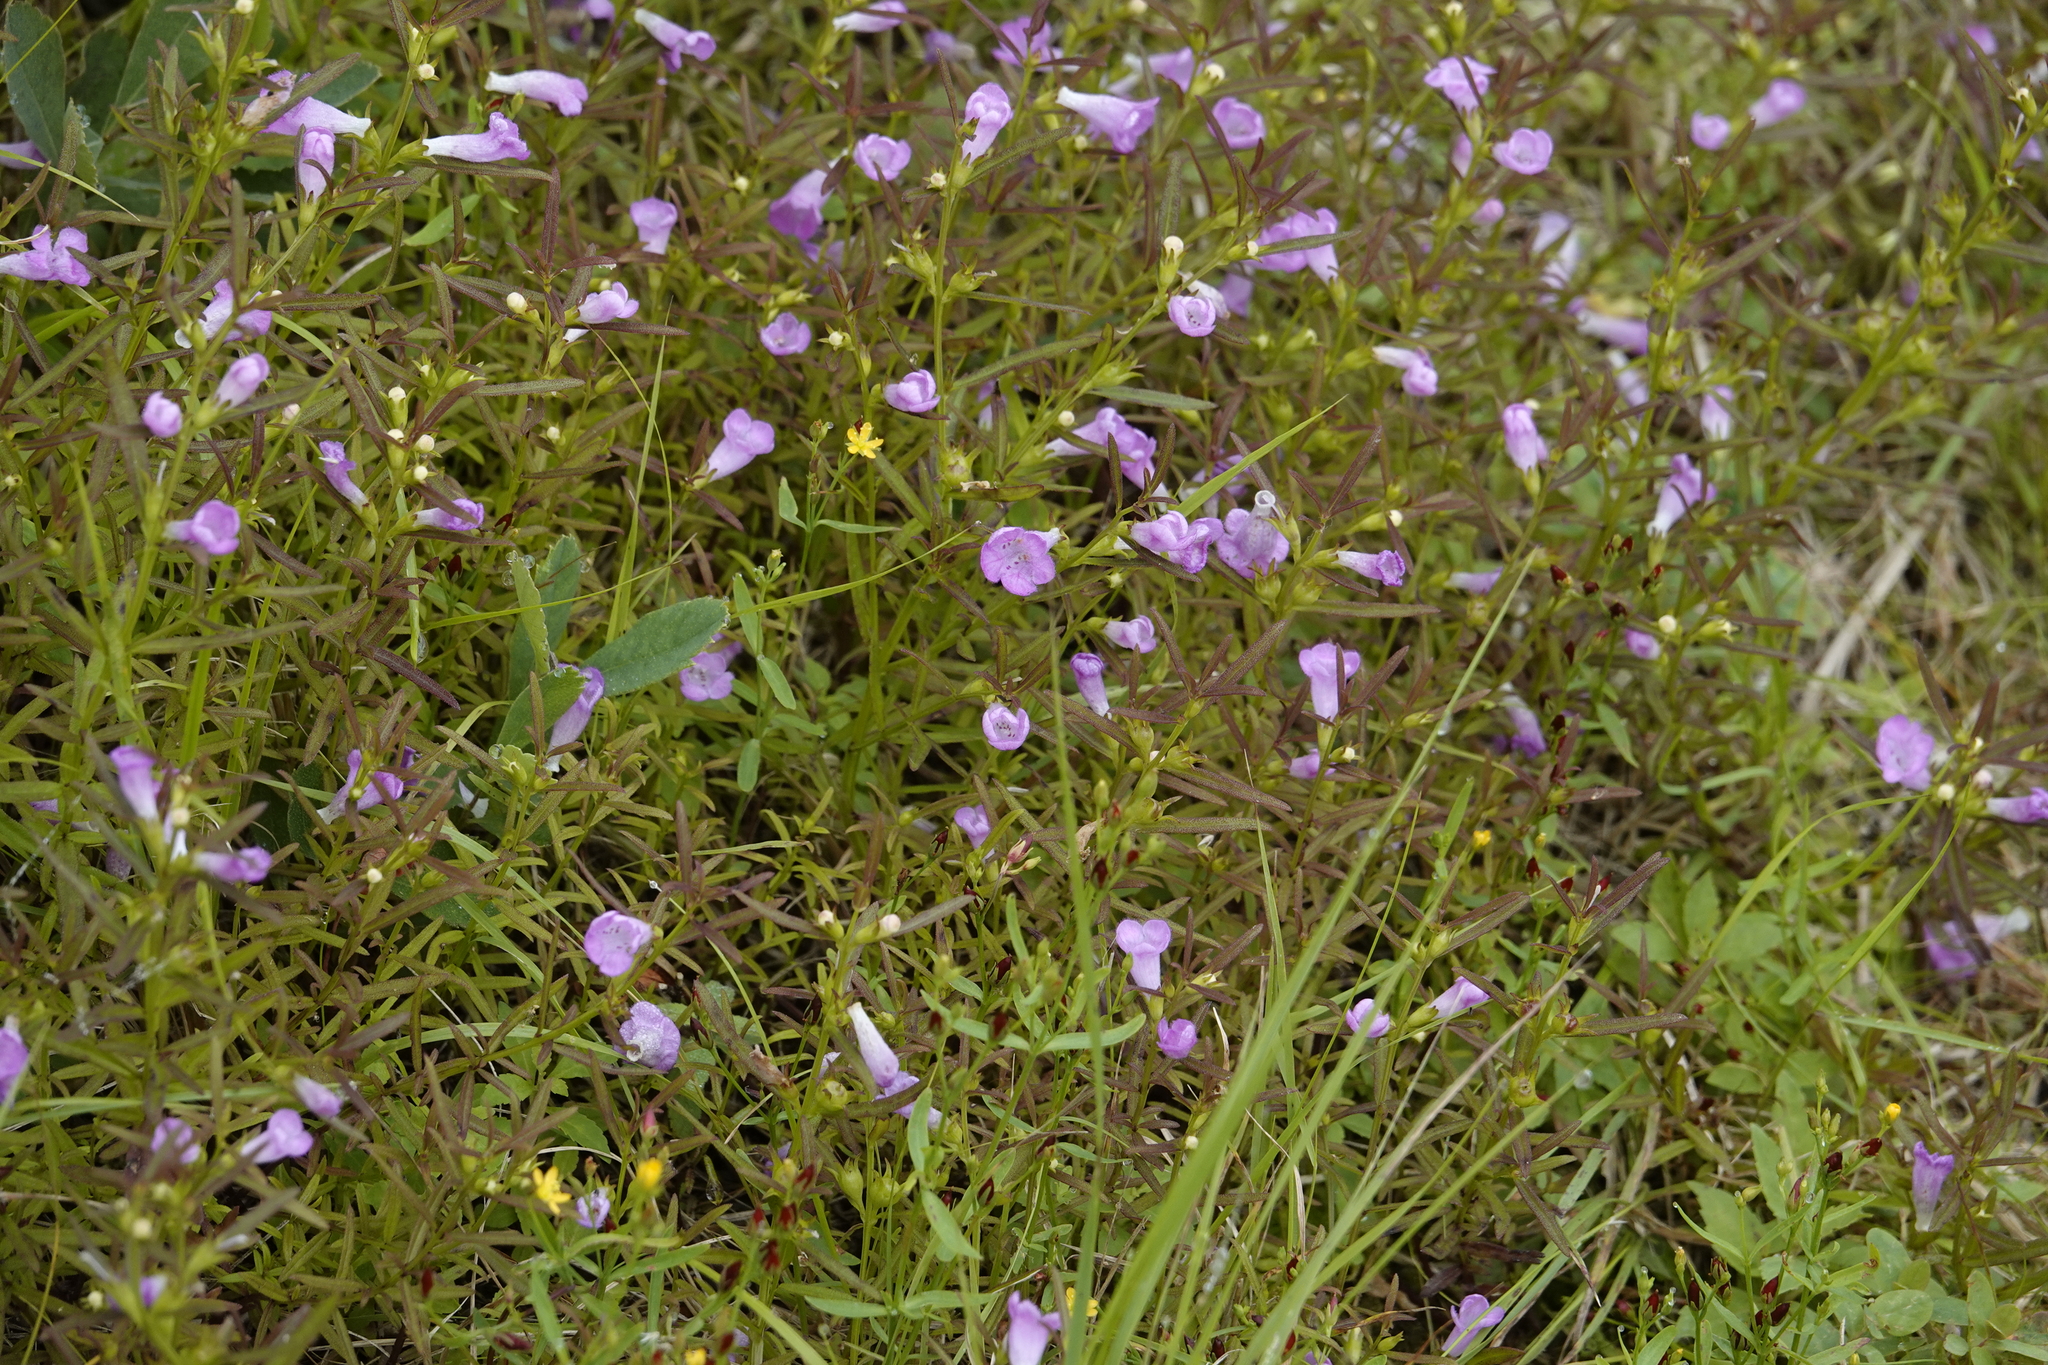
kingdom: Plantae
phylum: Tracheophyta
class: Magnoliopsida
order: Lamiales
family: Orobanchaceae
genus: Agalinis
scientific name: Agalinis neoscotica
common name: Middleton false foxglove
